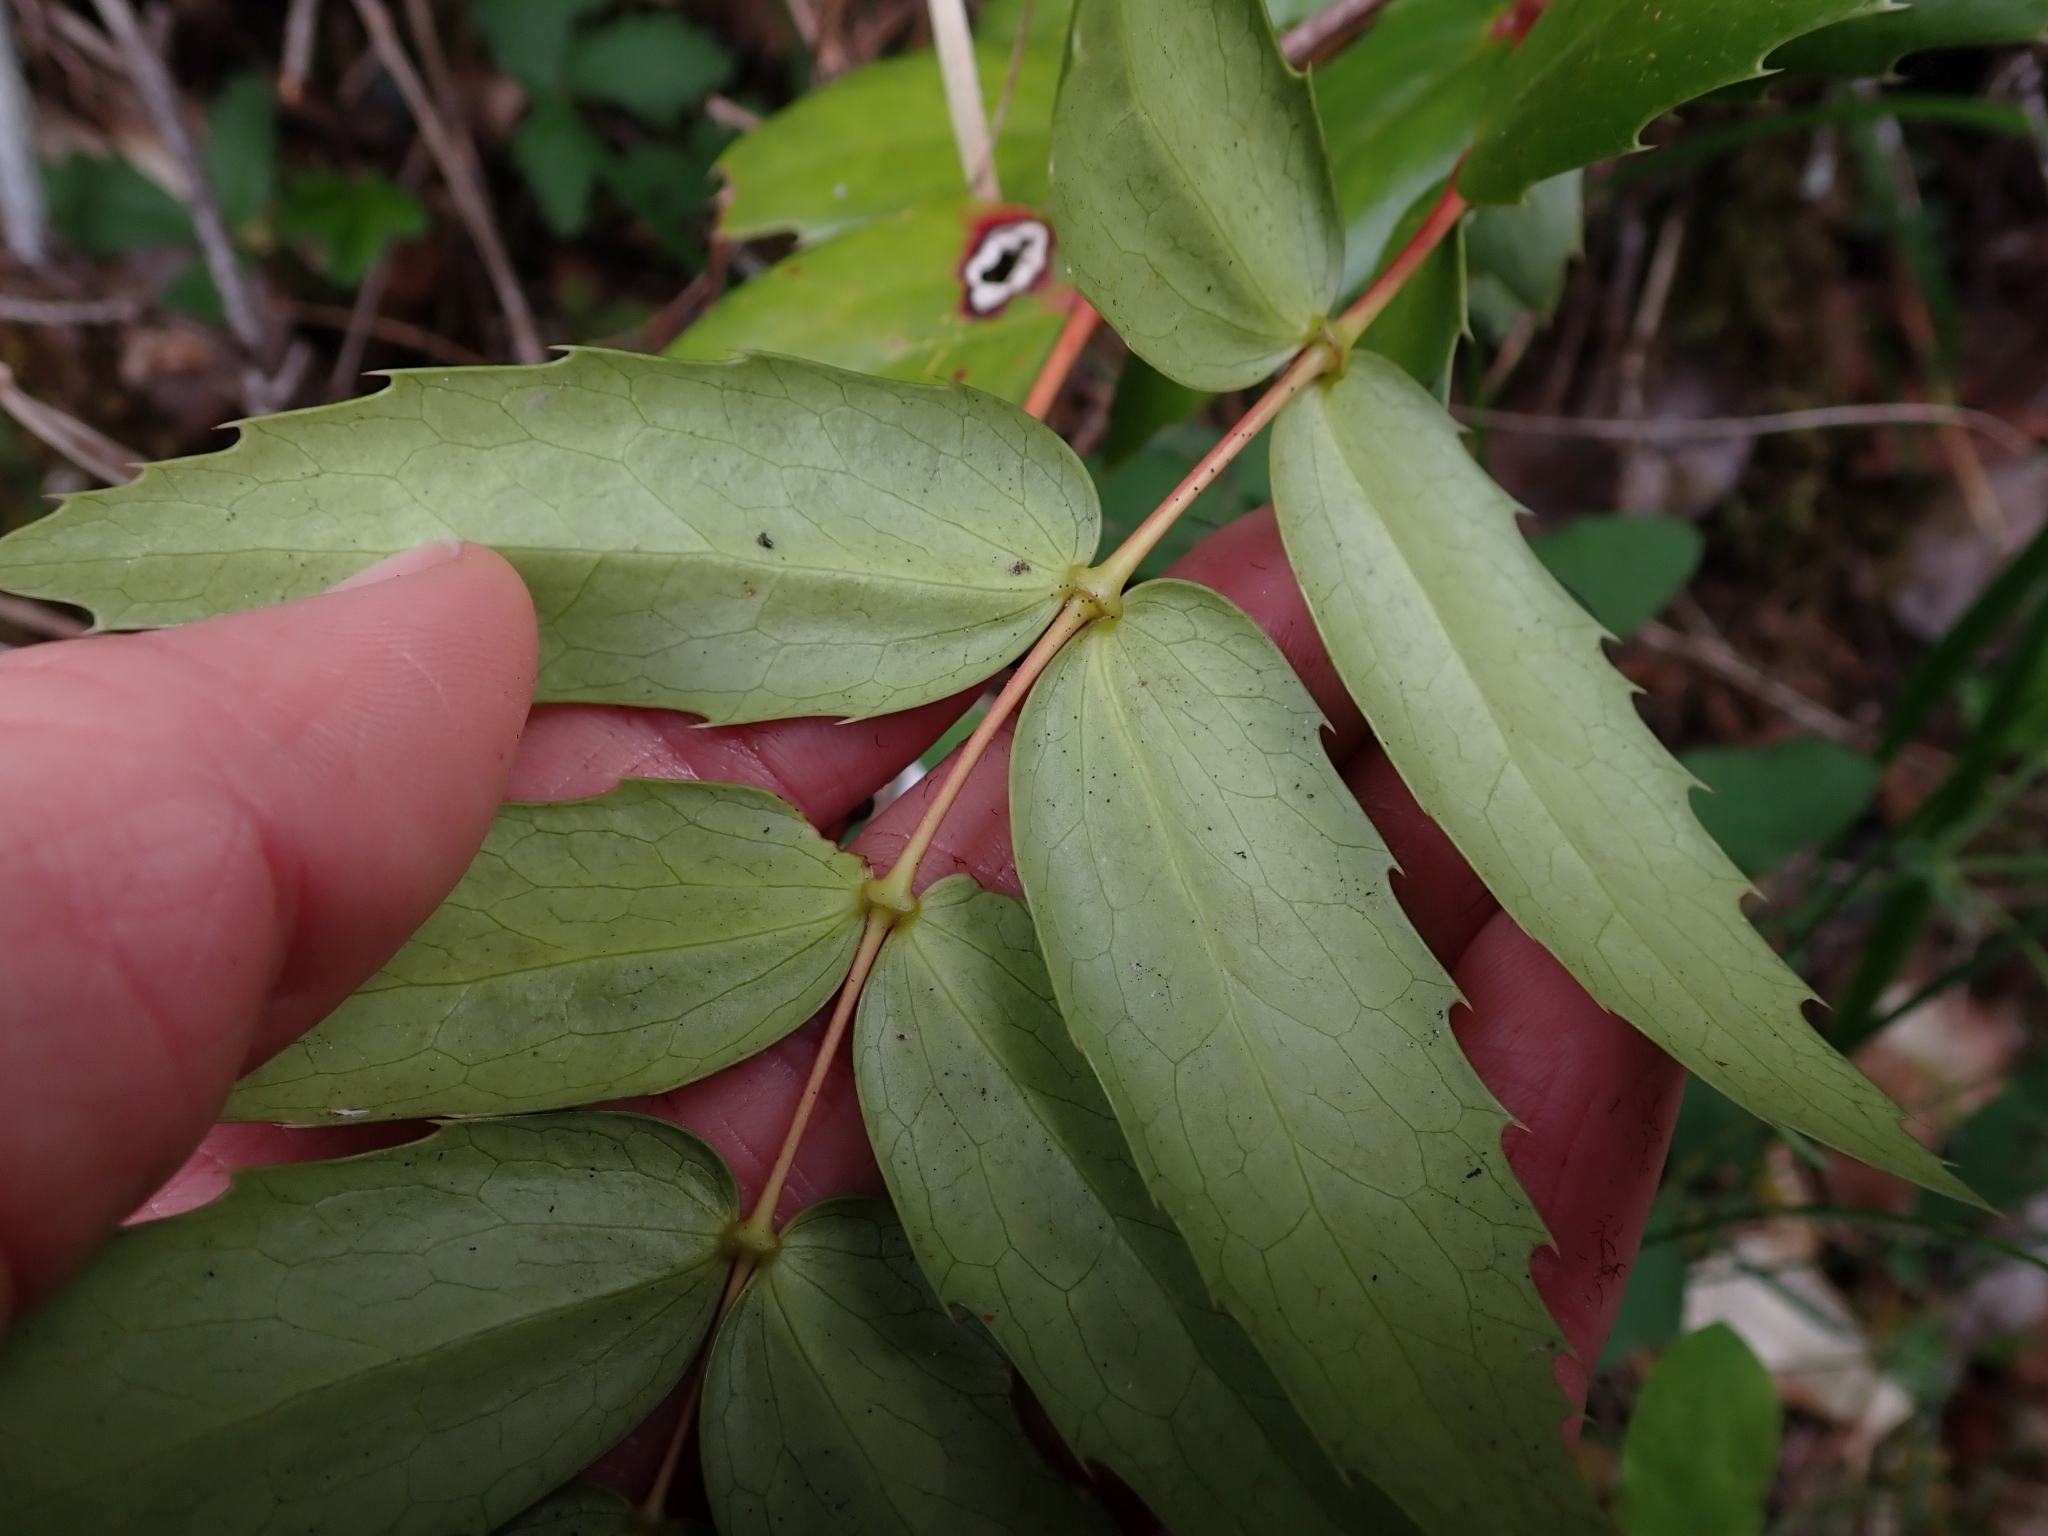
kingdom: Plantae
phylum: Tracheophyta
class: Magnoliopsida
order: Ranunculales
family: Berberidaceae
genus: Mahonia
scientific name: Mahonia nervosa
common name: Cascade oregon-grape
